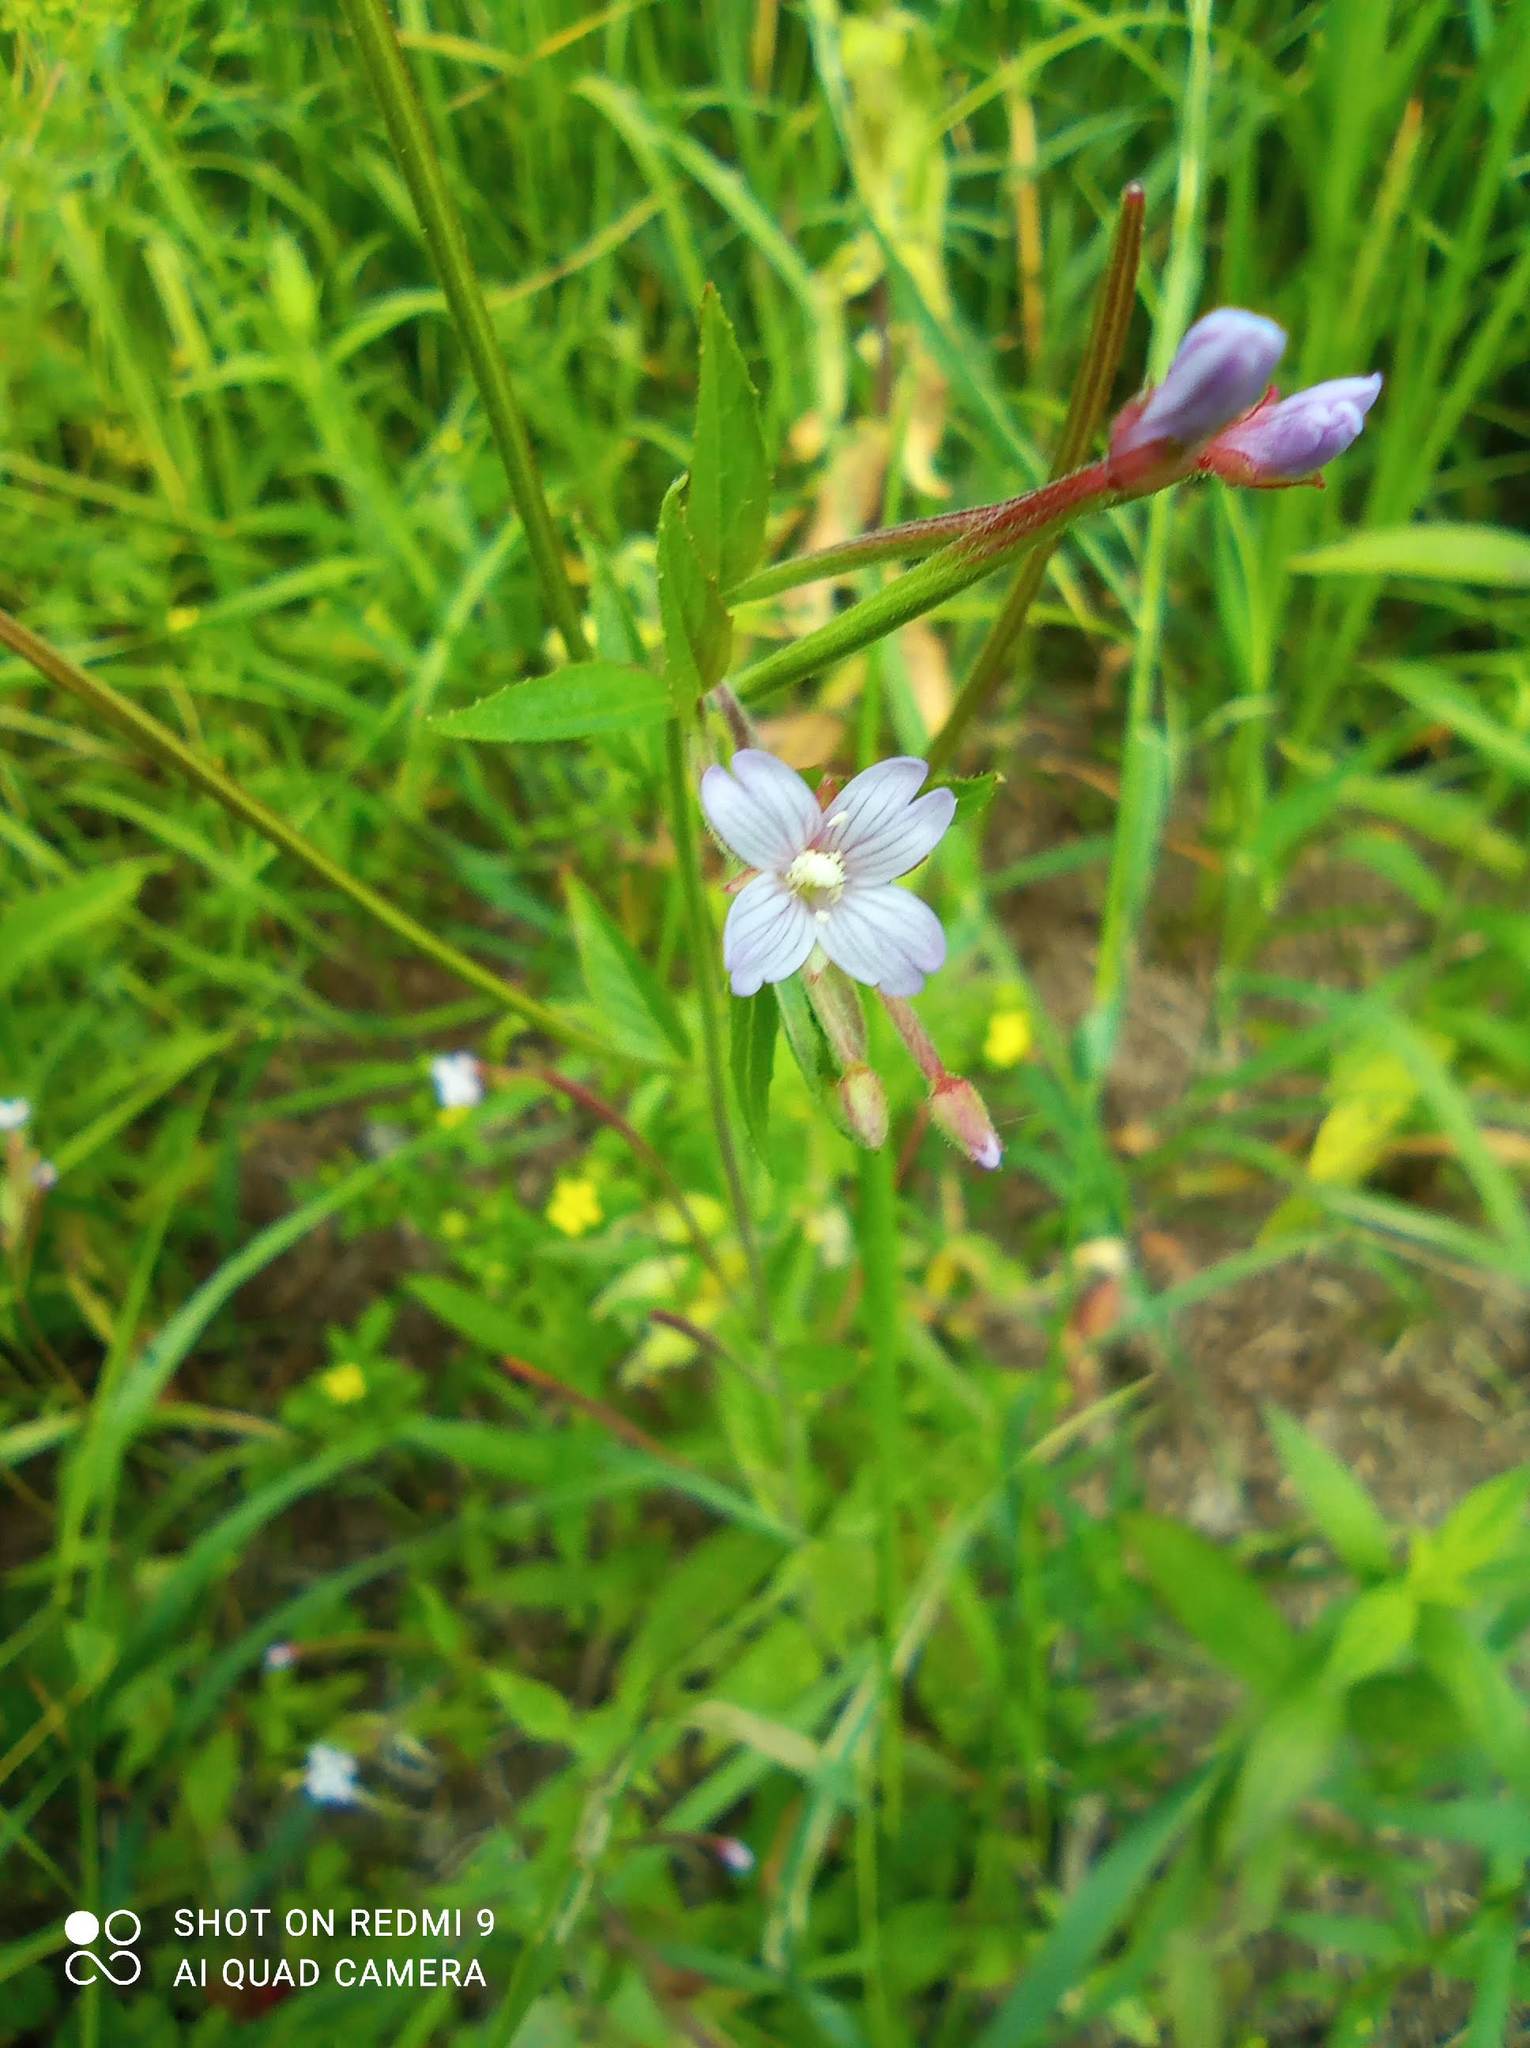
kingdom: Plantae
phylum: Tracheophyta
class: Magnoliopsida
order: Myrtales
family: Onagraceae
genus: Epilobium
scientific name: Epilobium ciliatum
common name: American willowherb
